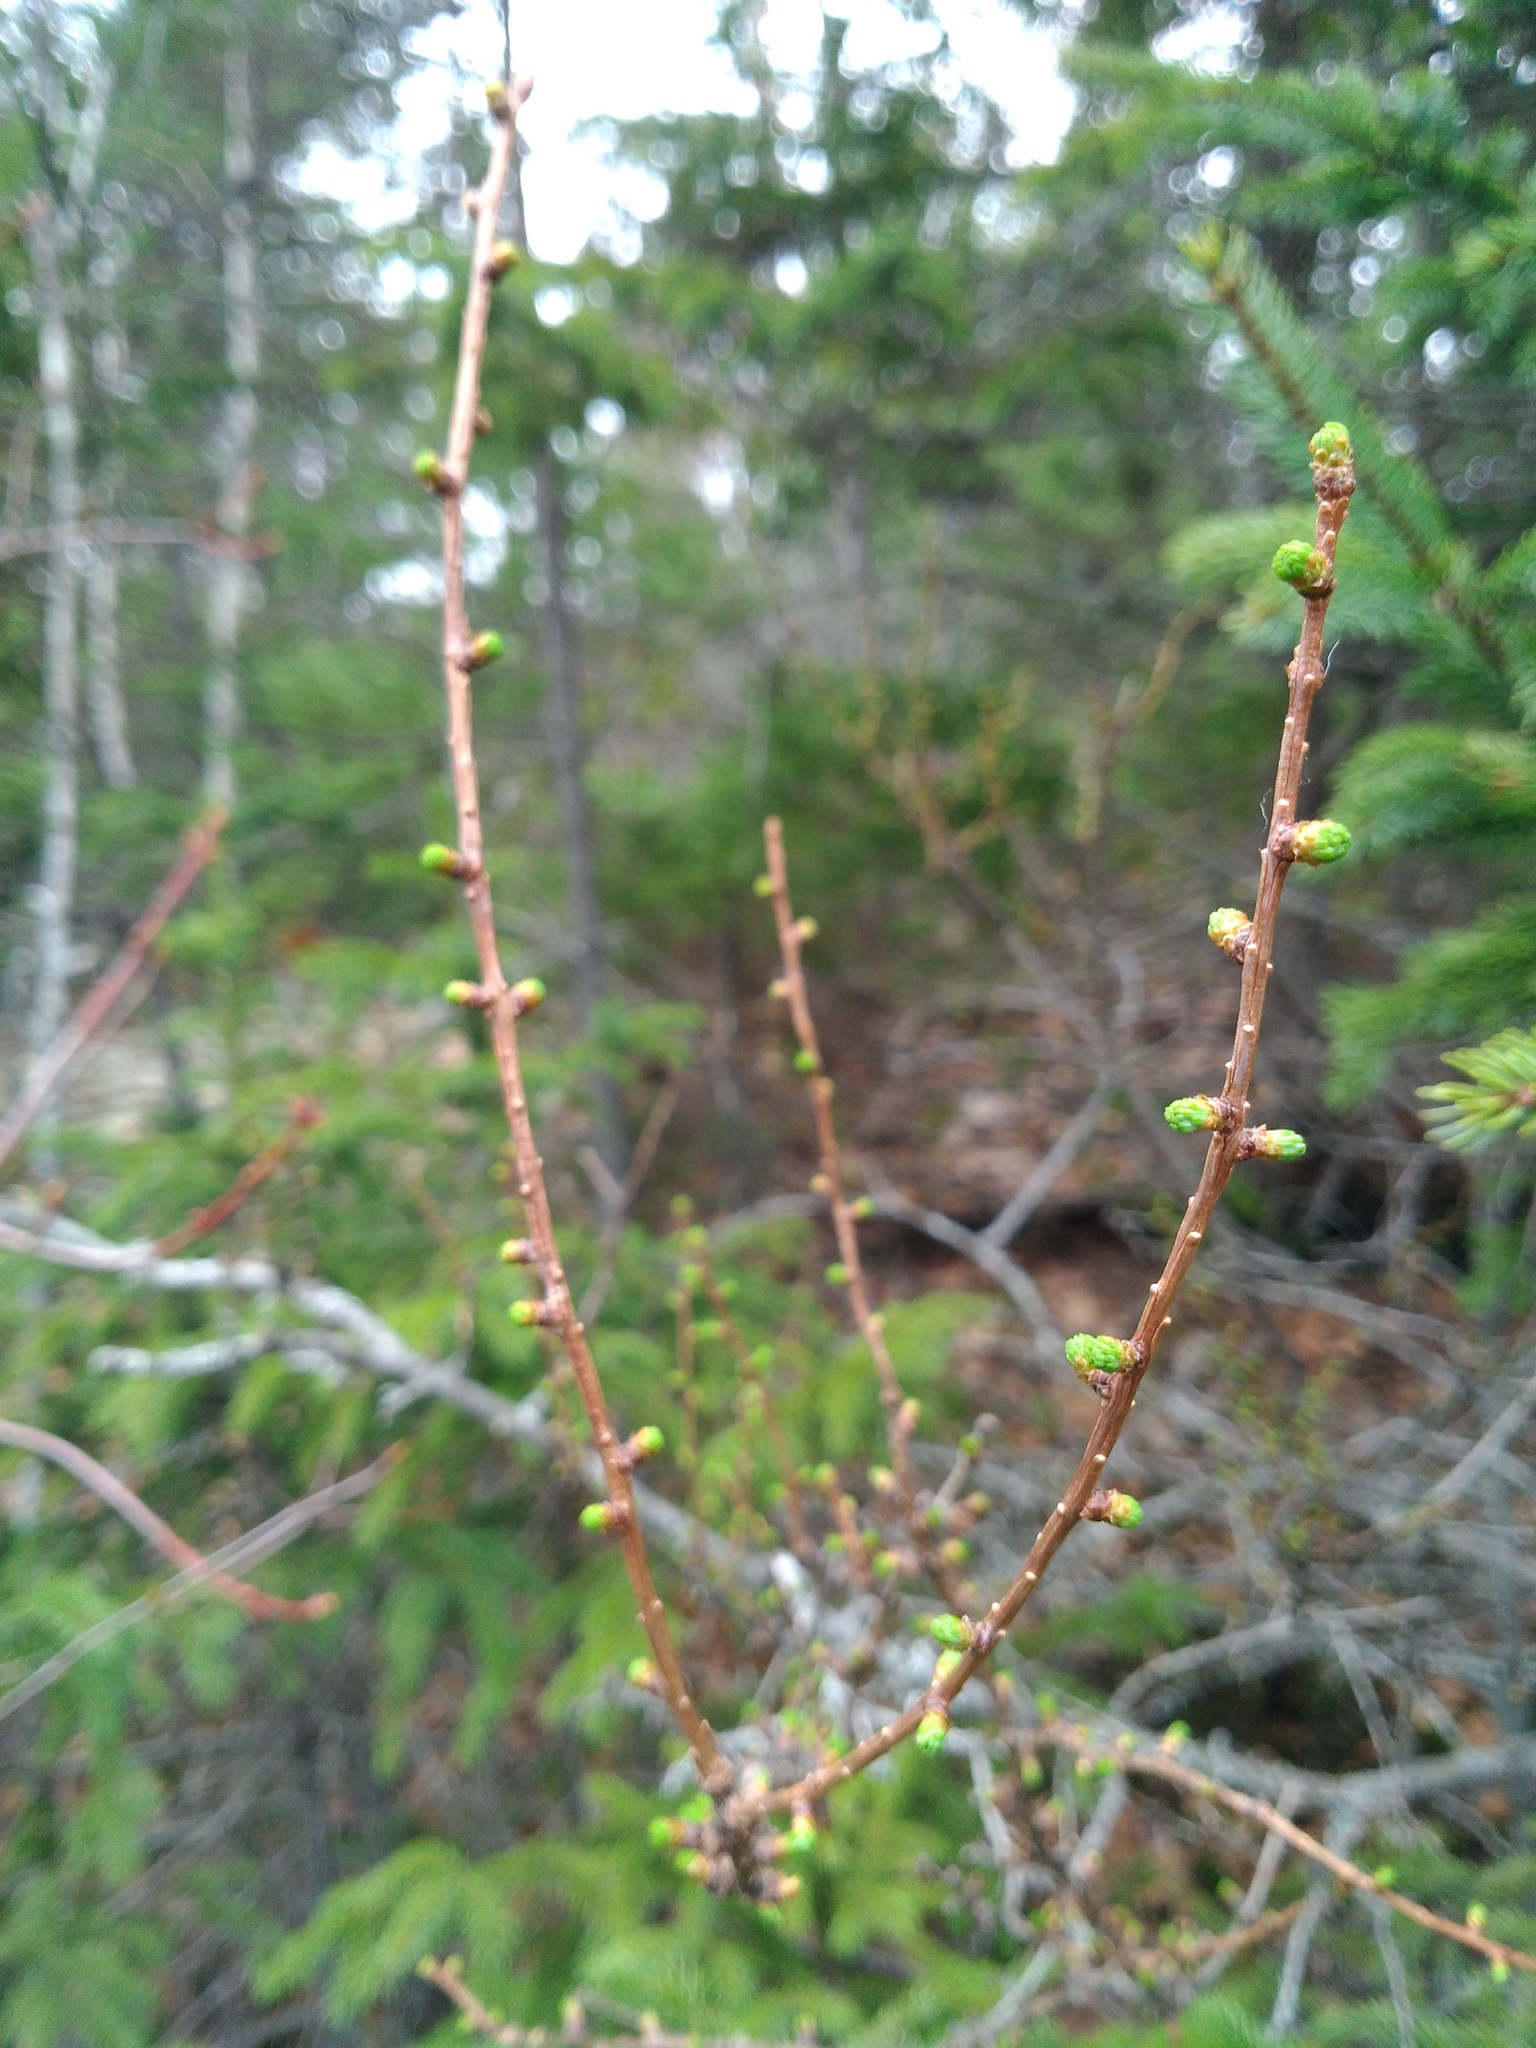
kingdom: Plantae
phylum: Tracheophyta
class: Pinopsida
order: Pinales
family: Pinaceae
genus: Larix
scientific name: Larix laricina
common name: American larch
